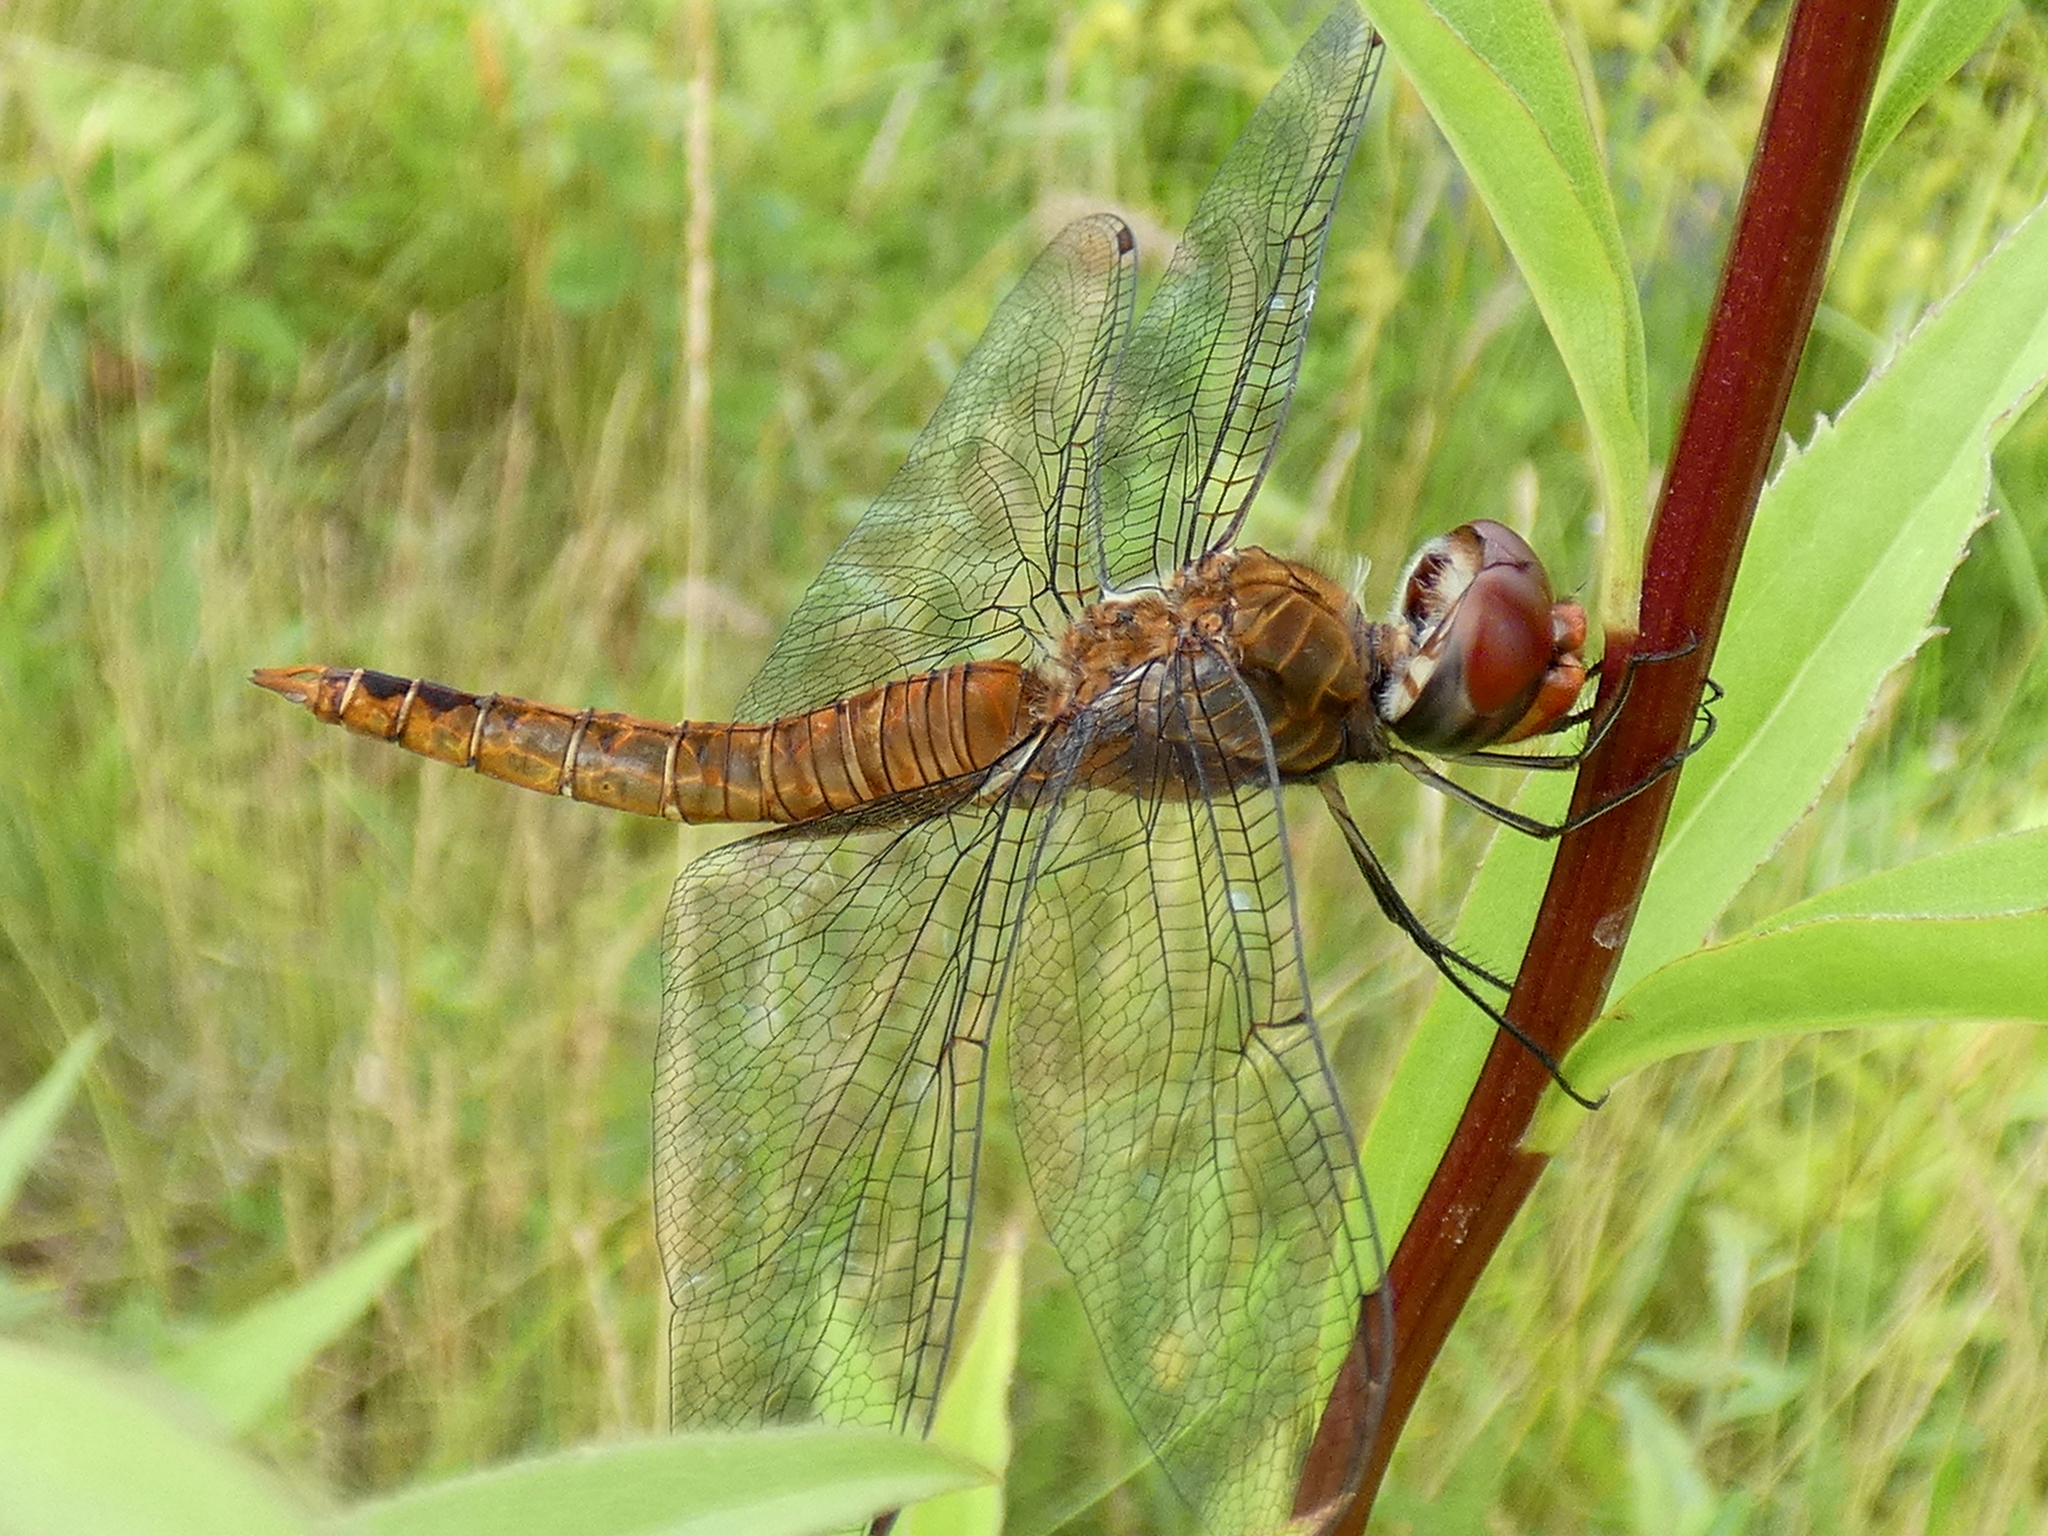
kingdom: Animalia
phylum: Arthropoda
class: Insecta
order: Odonata
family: Libellulidae
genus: Pantala
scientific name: Pantala hymenaea
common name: Spot-winged glider
